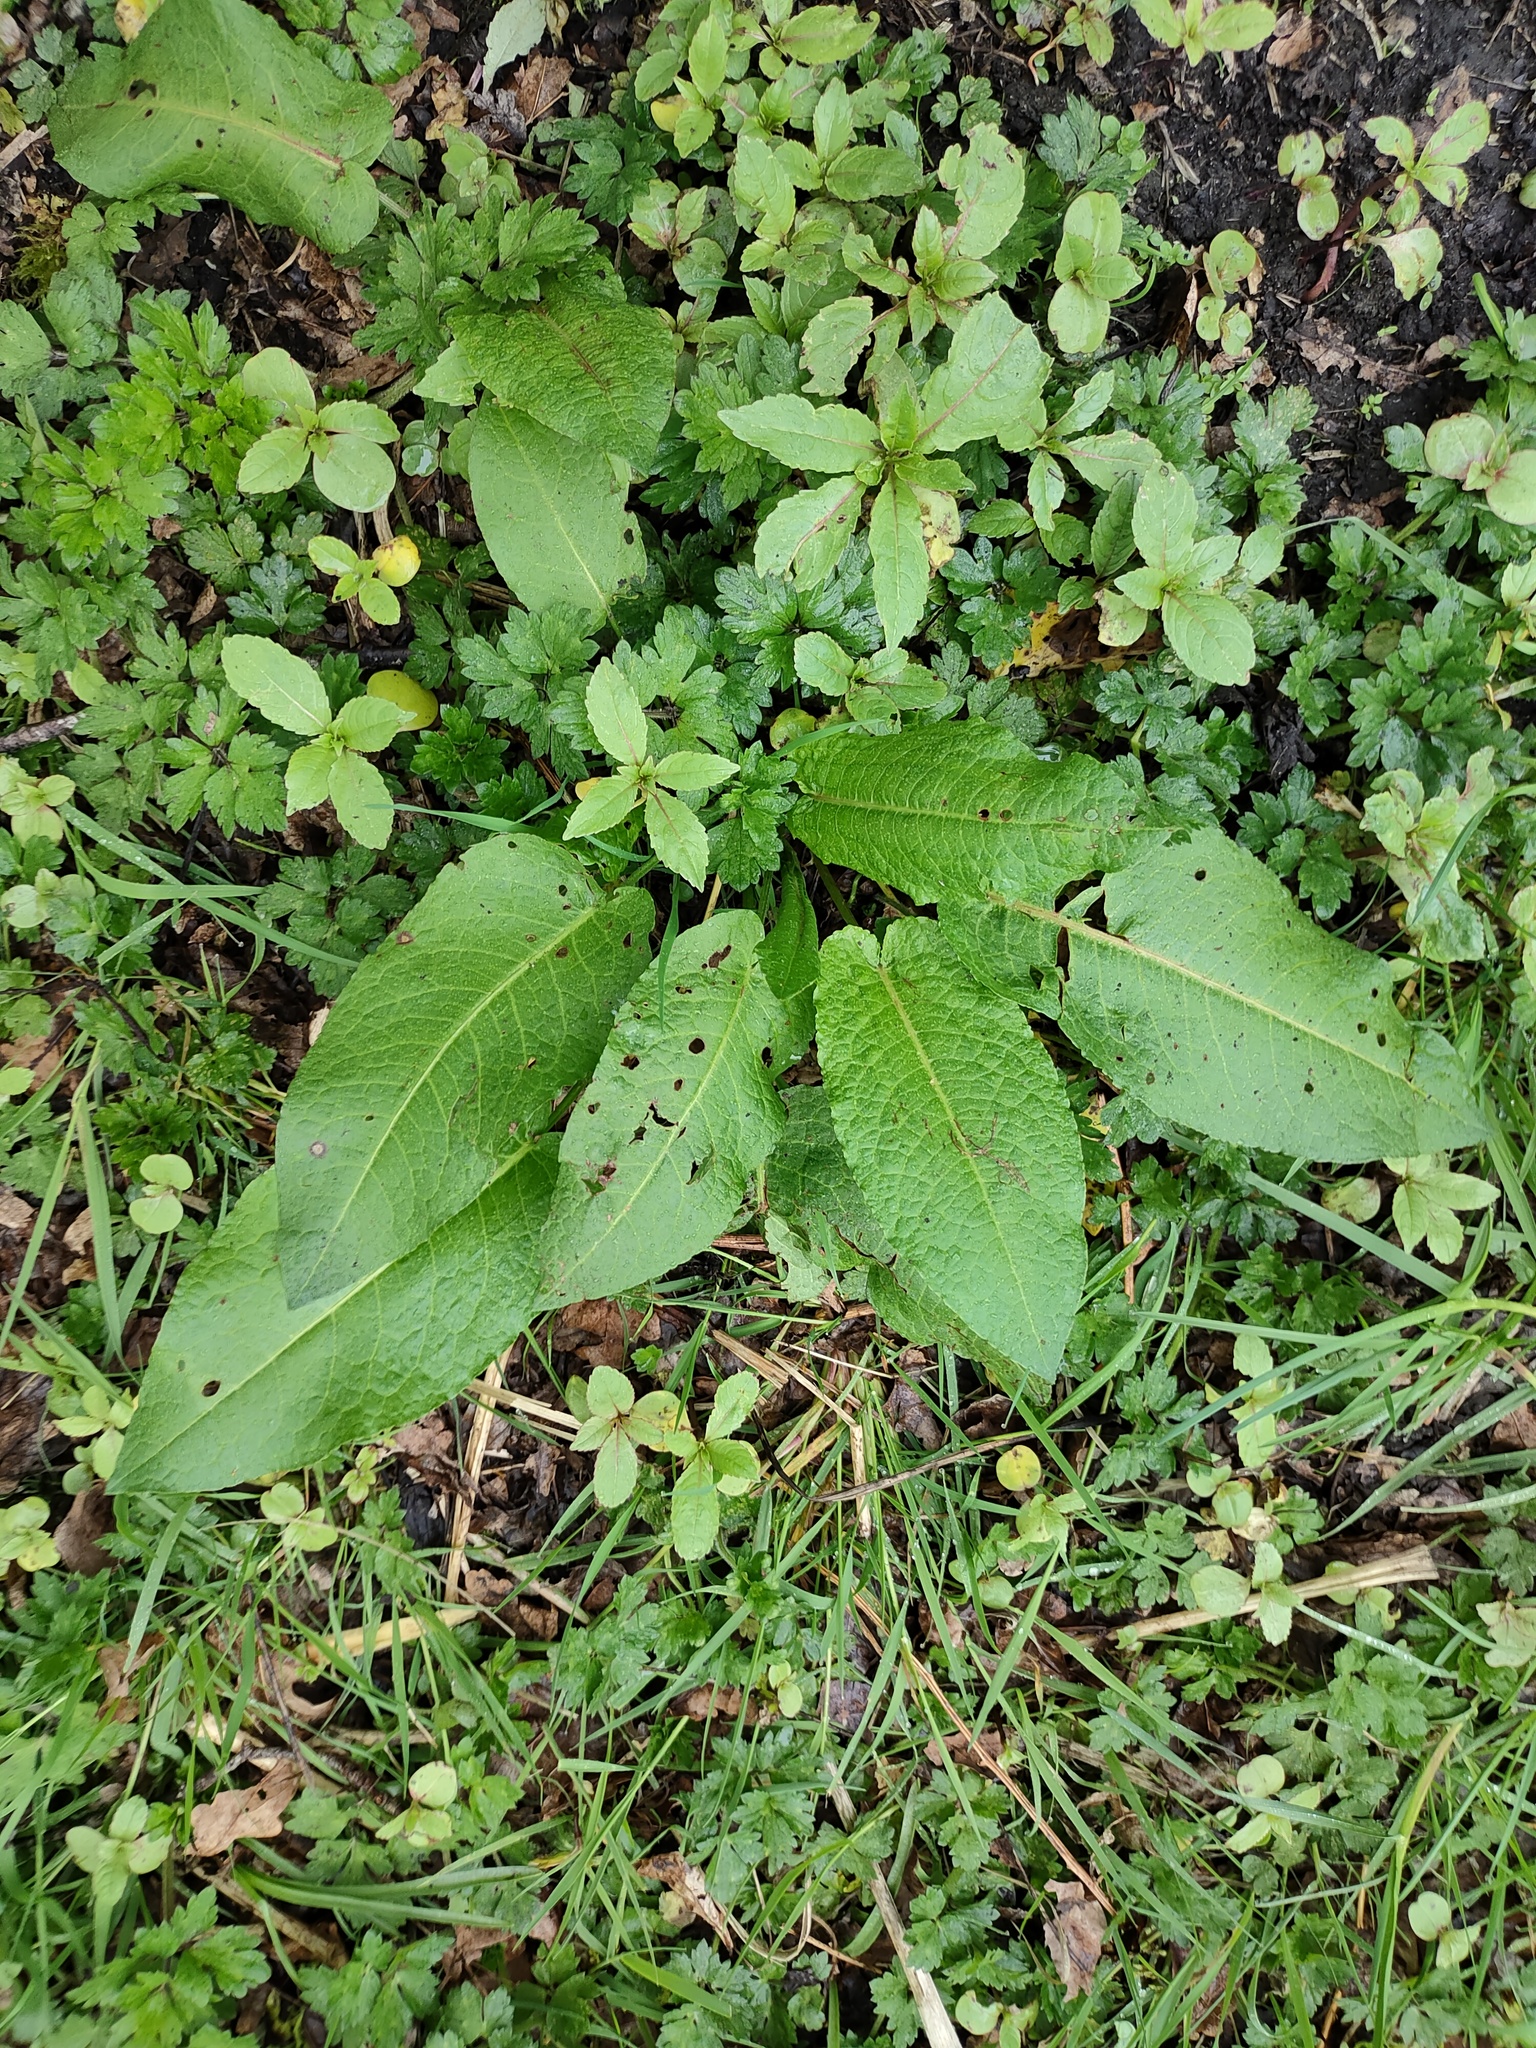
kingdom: Plantae
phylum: Tracheophyta
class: Magnoliopsida
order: Caryophyllales
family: Polygonaceae
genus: Rumex
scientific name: Rumex obtusifolius
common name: Bitter dock
